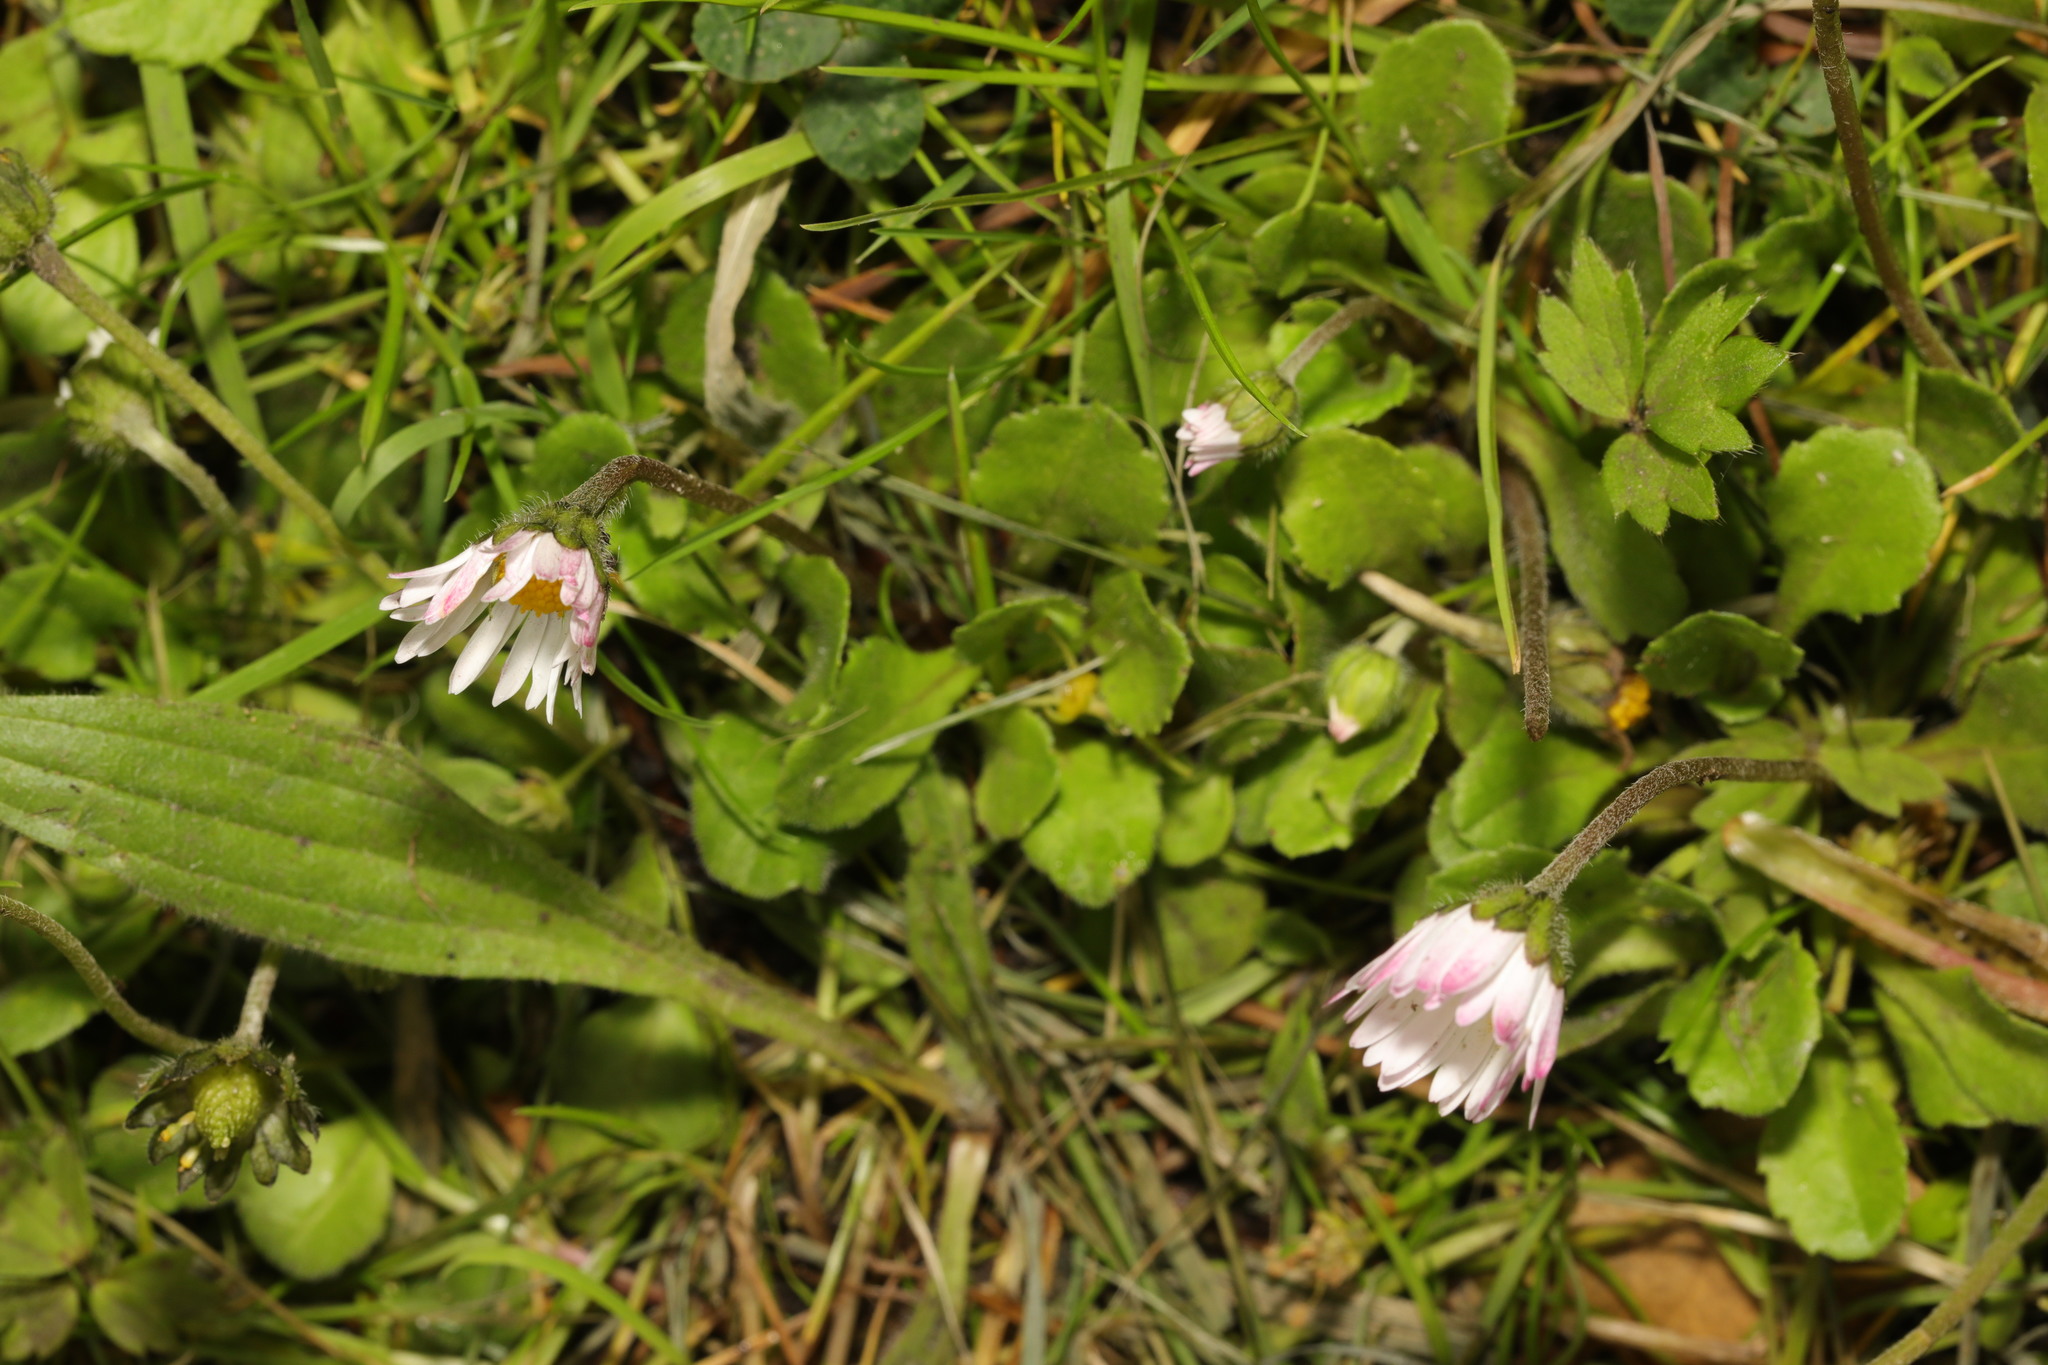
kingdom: Plantae
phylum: Tracheophyta
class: Magnoliopsida
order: Asterales
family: Asteraceae
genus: Bellis
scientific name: Bellis perennis
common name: Lawndaisy
